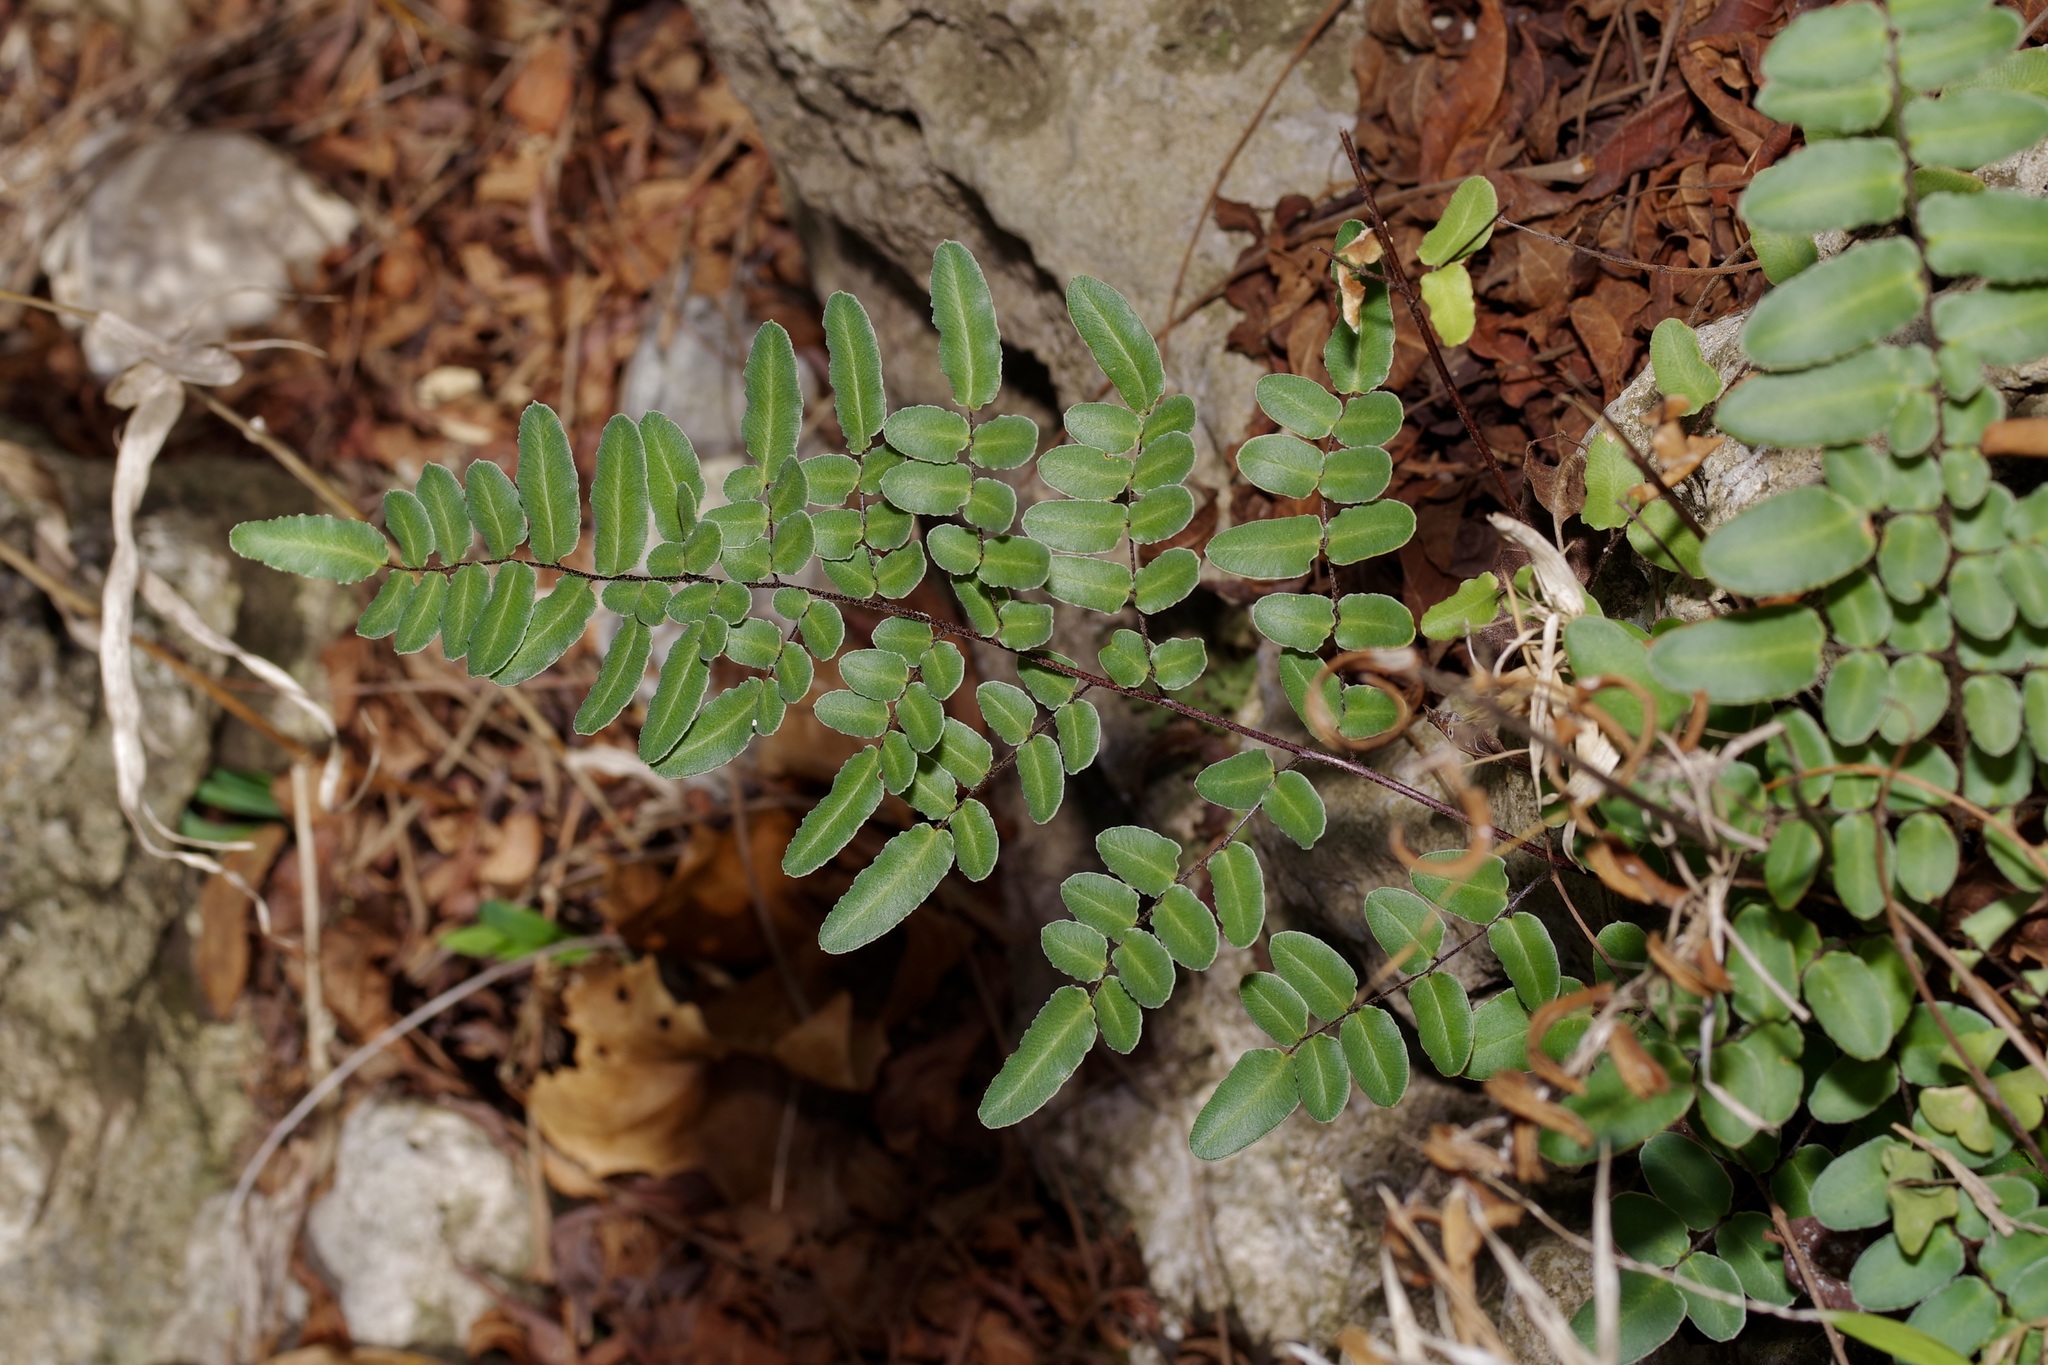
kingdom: Plantae
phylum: Tracheophyta
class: Polypodiopsida
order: Polypodiales
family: Pteridaceae
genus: Pellaea
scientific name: Pellaea atropurpurea
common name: Hairy cliffbrake
